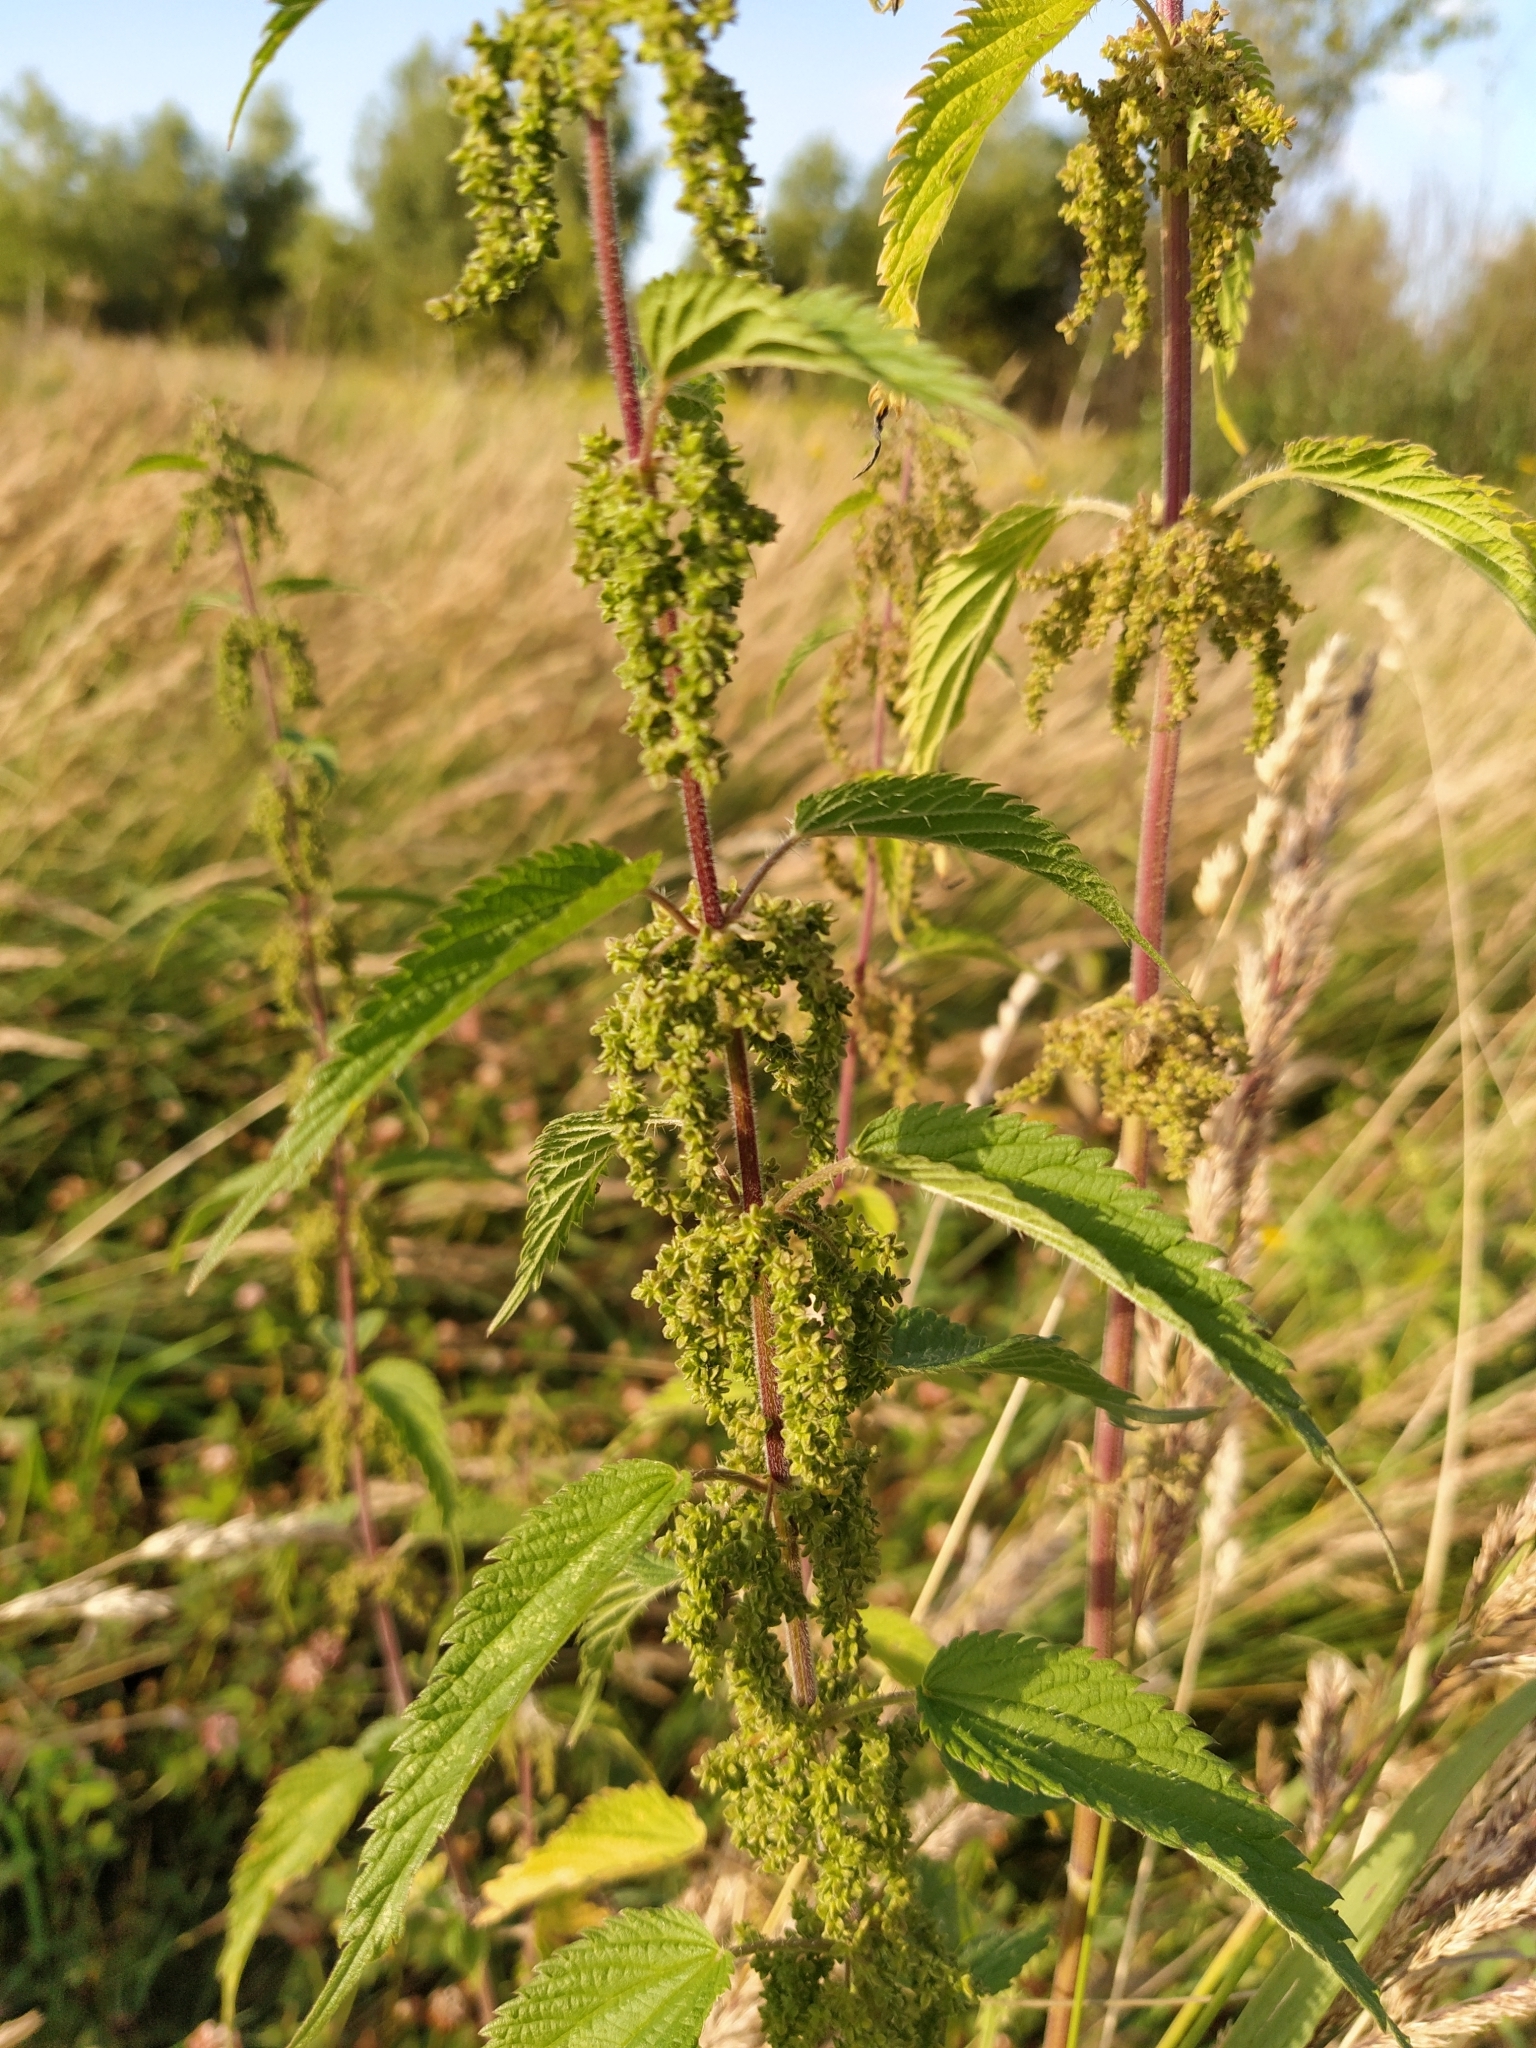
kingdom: Plantae
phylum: Tracheophyta
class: Magnoliopsida
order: Rosales
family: Urticaceae
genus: Urtica
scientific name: Urtica dioica
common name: Common nettle
